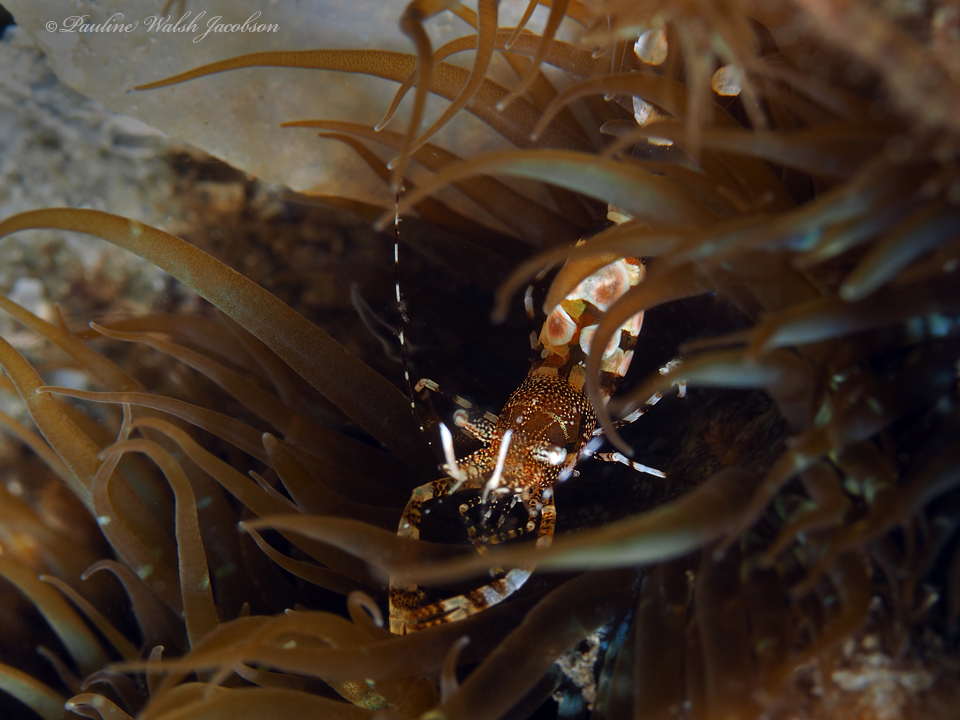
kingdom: Animalia
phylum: Arthropoda
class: Malacostraca
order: Decapoda
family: Palaemonidae
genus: Periclimenes
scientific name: Periclimenes yucatanicus
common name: Spotted cleaning shrimp
